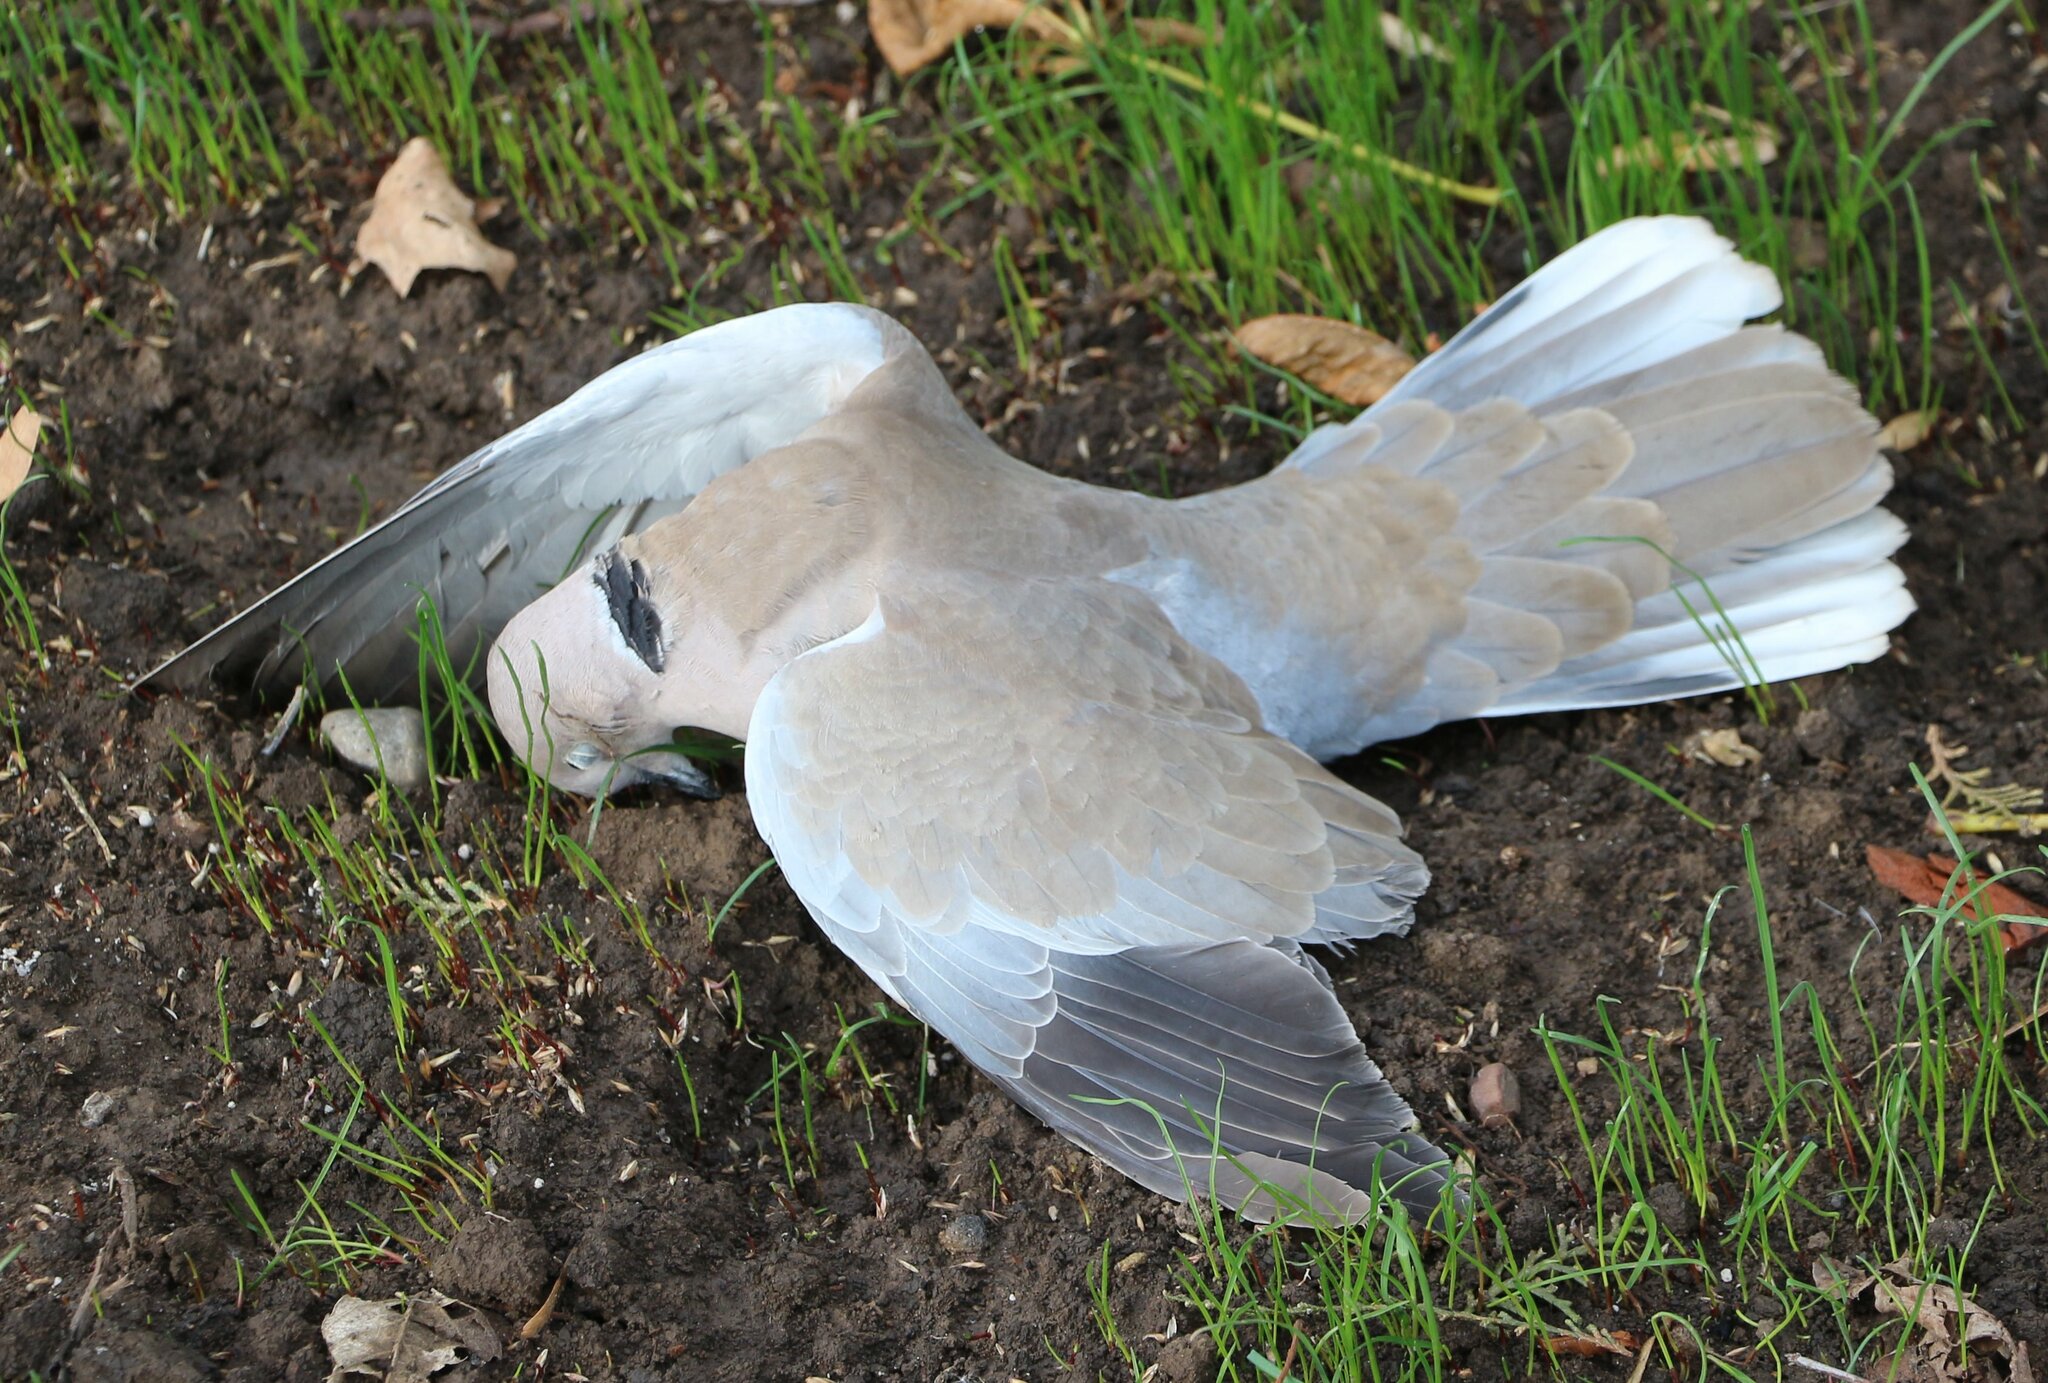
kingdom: Animalia
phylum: Chordata
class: Aves
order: Columbiformes
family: Columbidae
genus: Streptopelia
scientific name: Streptopelia decaocto
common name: Eurasian collared dove
